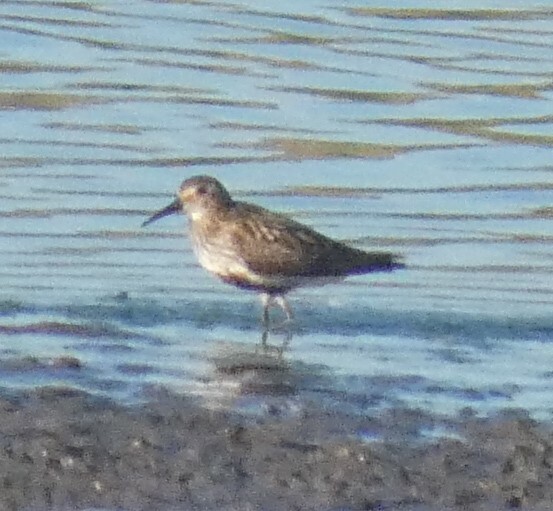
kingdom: Animalia
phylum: Chordata
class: Aves
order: Charadriiformes
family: Scolopacidae
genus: Calidris
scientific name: Calidris alpina
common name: Dunlin
